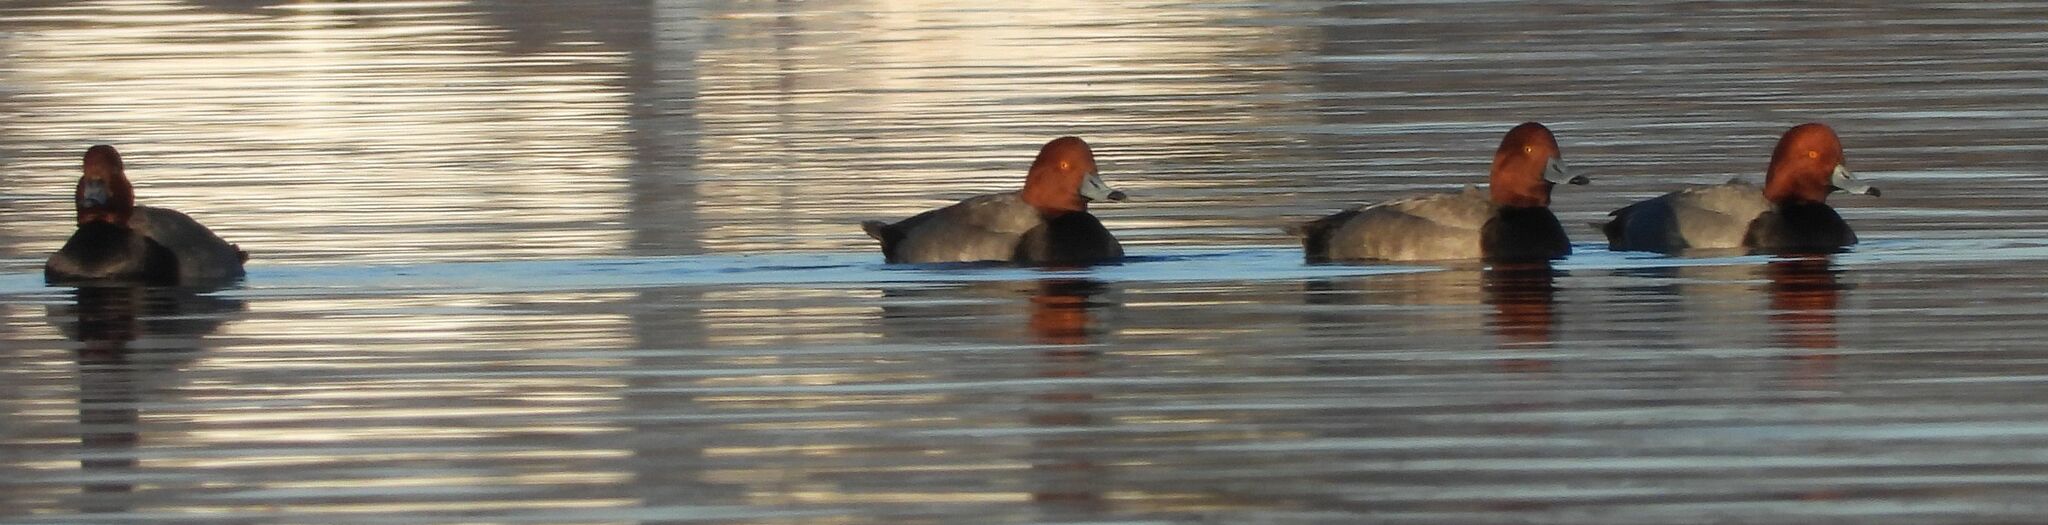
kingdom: Animalia
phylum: Chordata
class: Aves
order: Anseriformes
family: Anatidae
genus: Aythya
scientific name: Aythya americana
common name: Redhead
